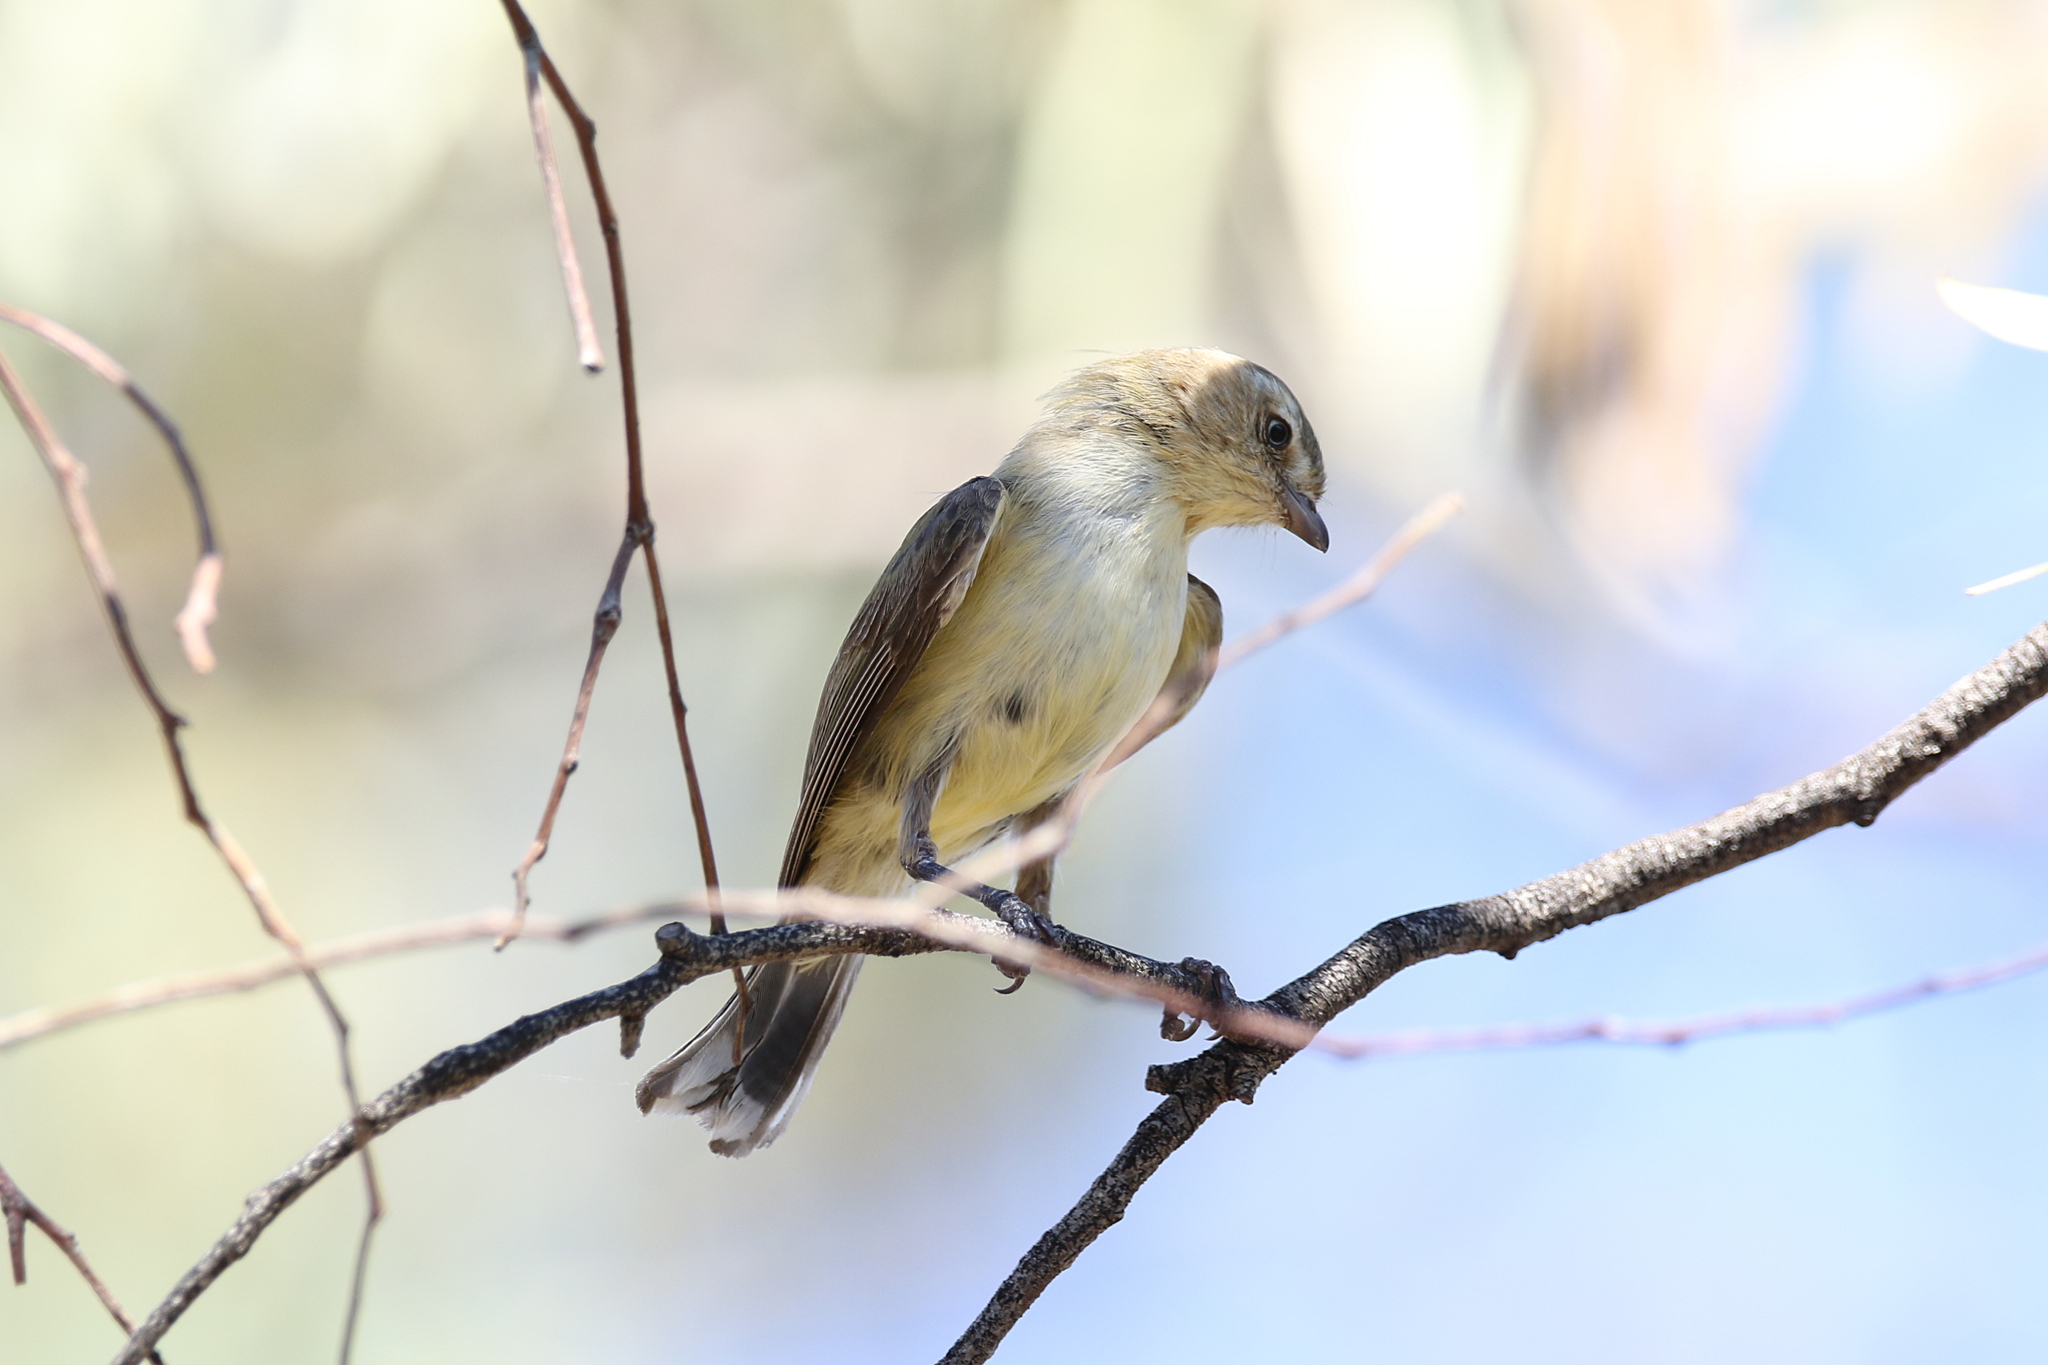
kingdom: Animalia
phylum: Chordata
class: Aves
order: Passeriformes
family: Acanthizidae
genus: Smicrornis
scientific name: Smicrornis brevirostris
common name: Weebill
